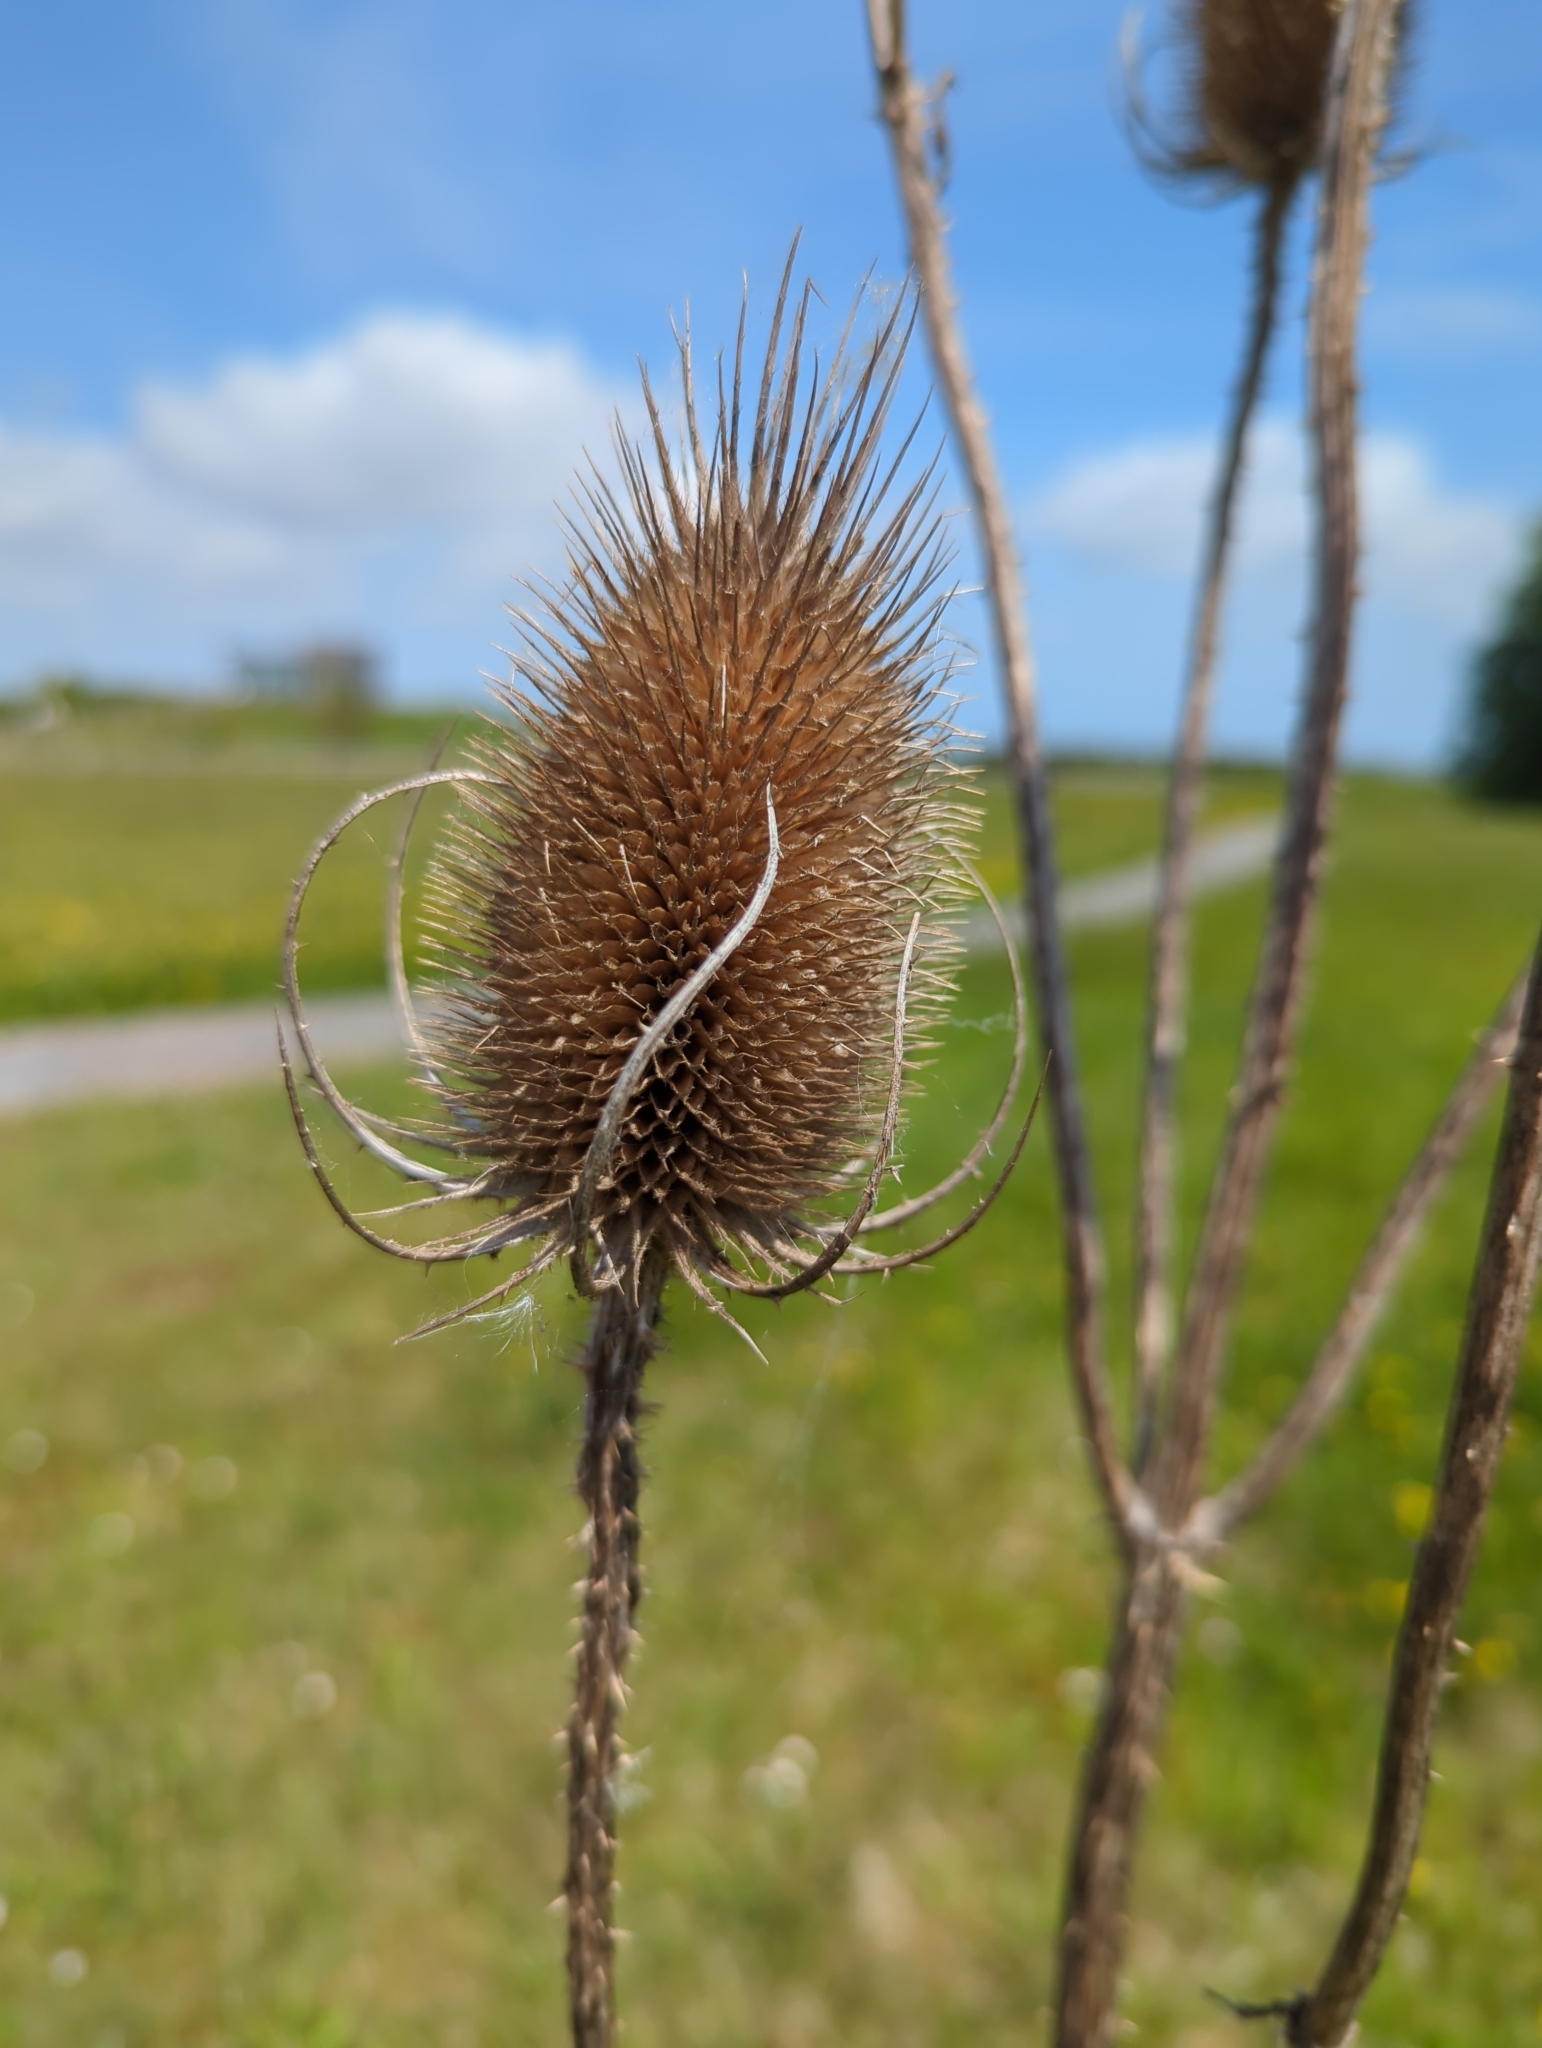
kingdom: Plantae
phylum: Tracheophyta
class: Magnoliopsida
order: Dipsacales
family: Caprifoliaceae
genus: Dipsacus
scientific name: Dipsacus fullonum
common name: Teasel
